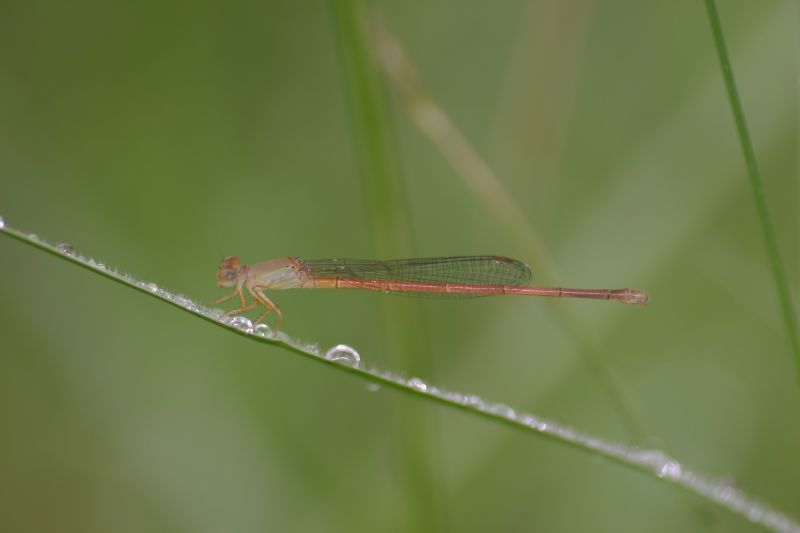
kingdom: Animalia
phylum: Arthropoda
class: Insecta
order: Odonata
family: Coenagrionidae
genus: Ceriagrion
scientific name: Ceriagrion olivaceum
